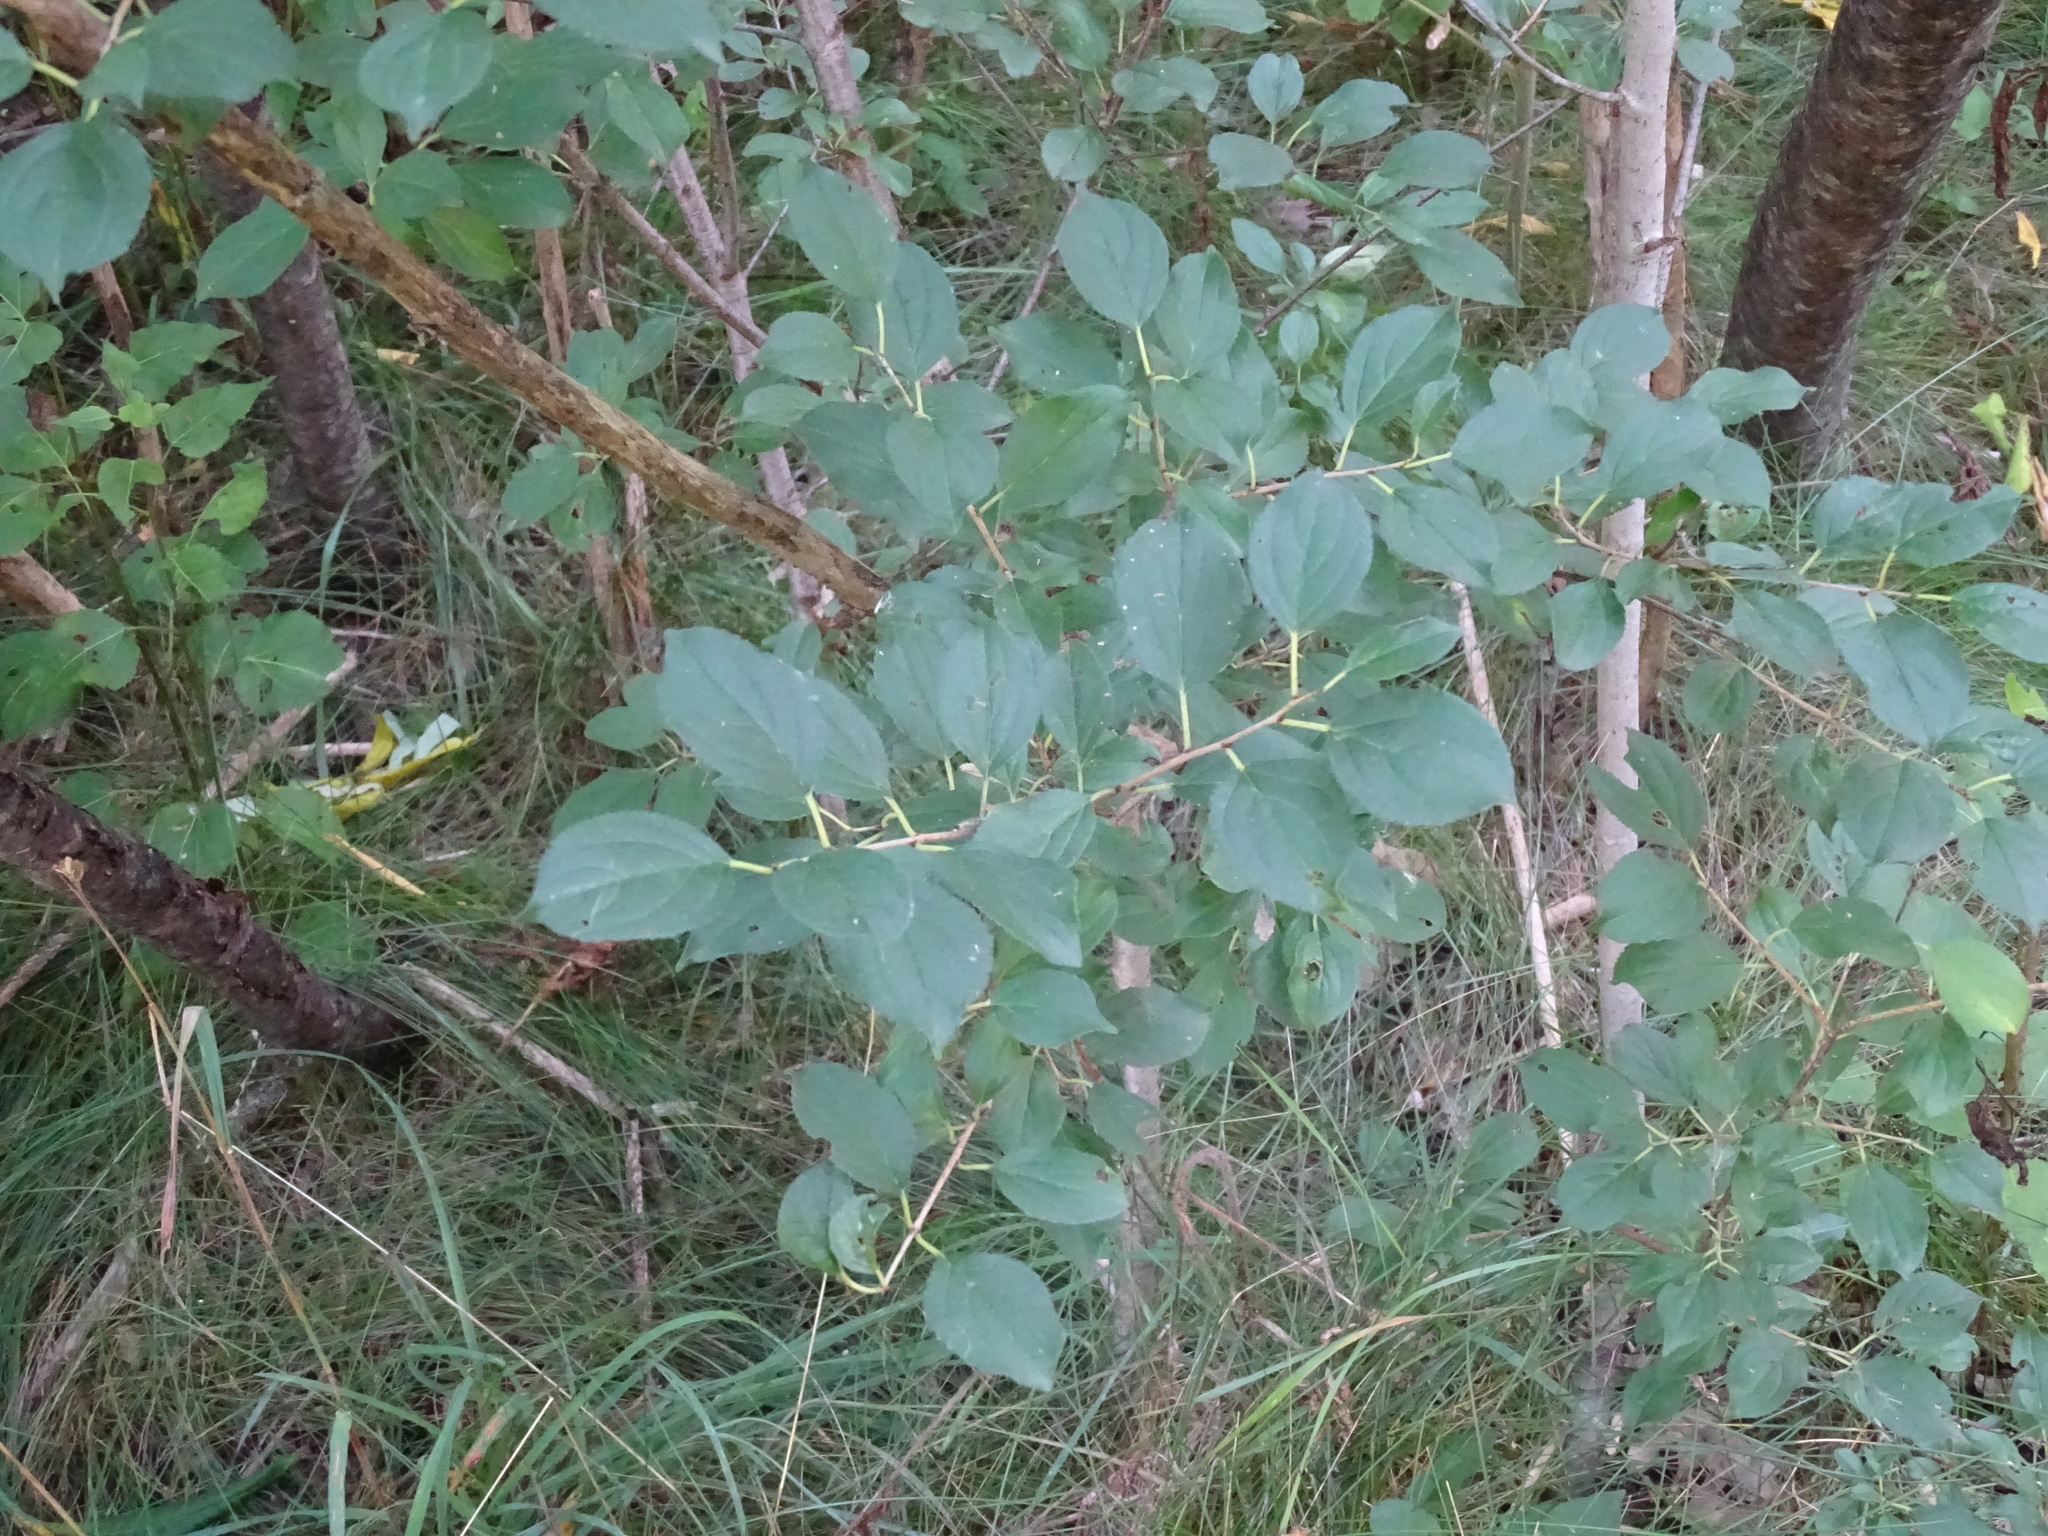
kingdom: Plantae
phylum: Tracheophyta
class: Magnoliopsida
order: Rosales
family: Rhamnaceae
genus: Rhamnus
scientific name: Rhamnus cathartica
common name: Common buckthorn
